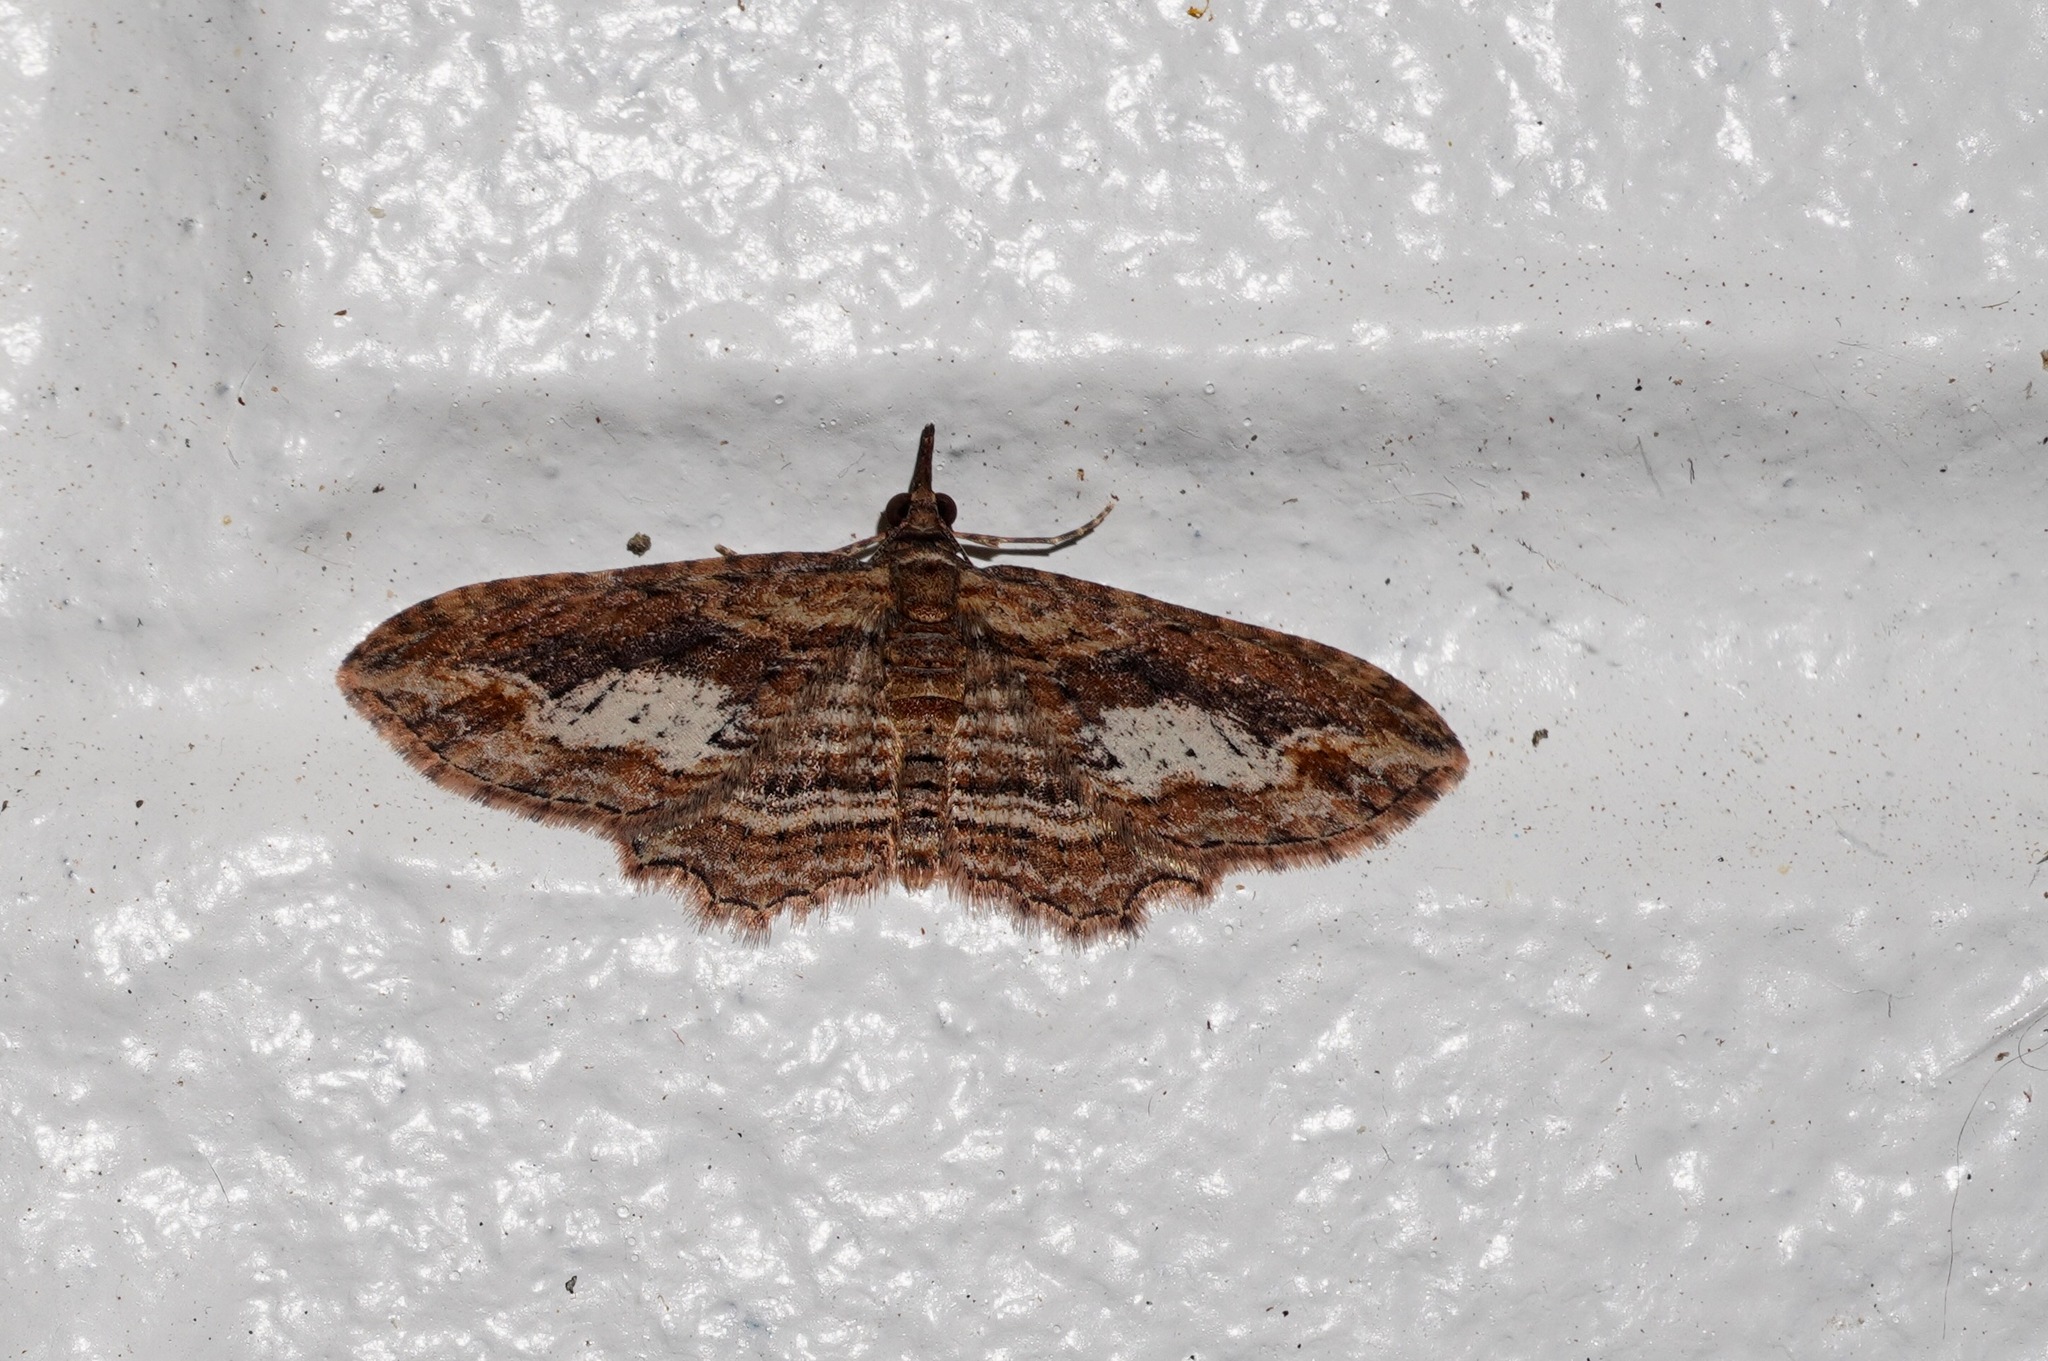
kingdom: Animalia
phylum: Arthropoda
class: Insecta
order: Lepidoptera
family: Geometridae
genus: Chloroclystis
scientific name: Chloroclystis filata
